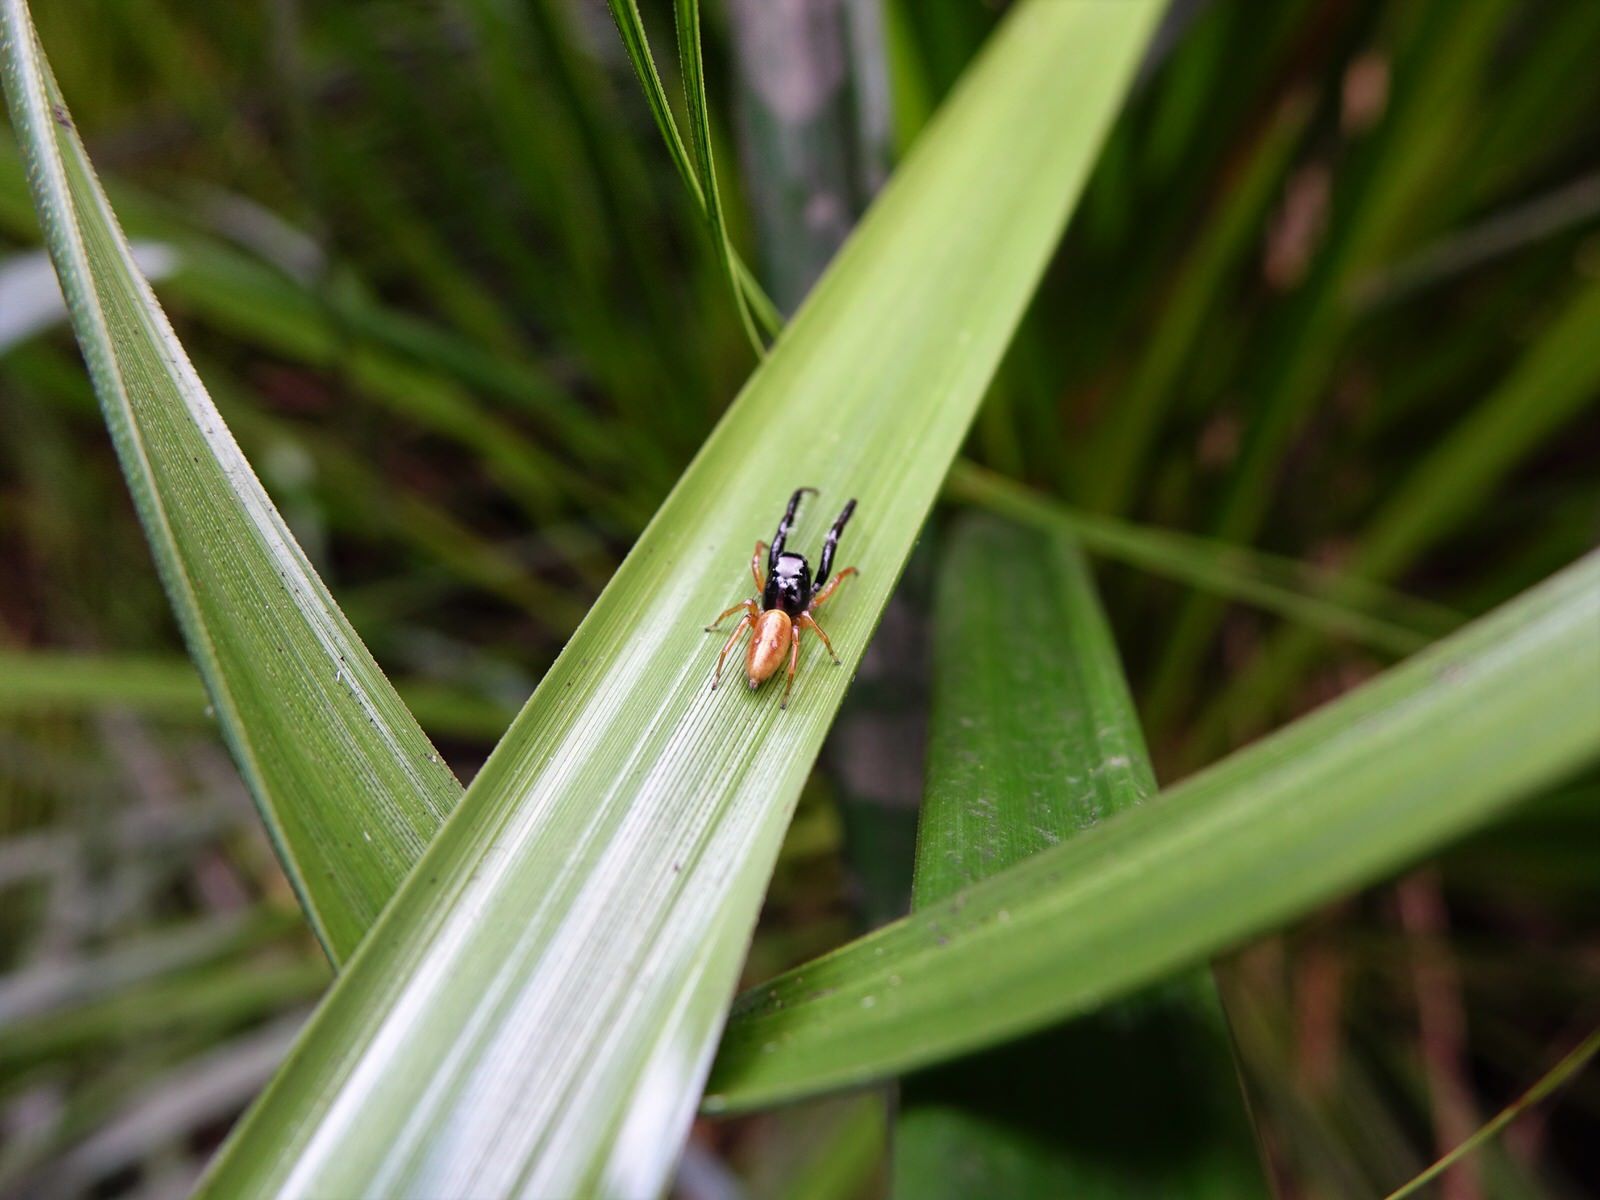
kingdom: Animalia
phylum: Arthropoda
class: Arachnida
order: Araneae
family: Salticidae
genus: Trite
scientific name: Trite planiceps
